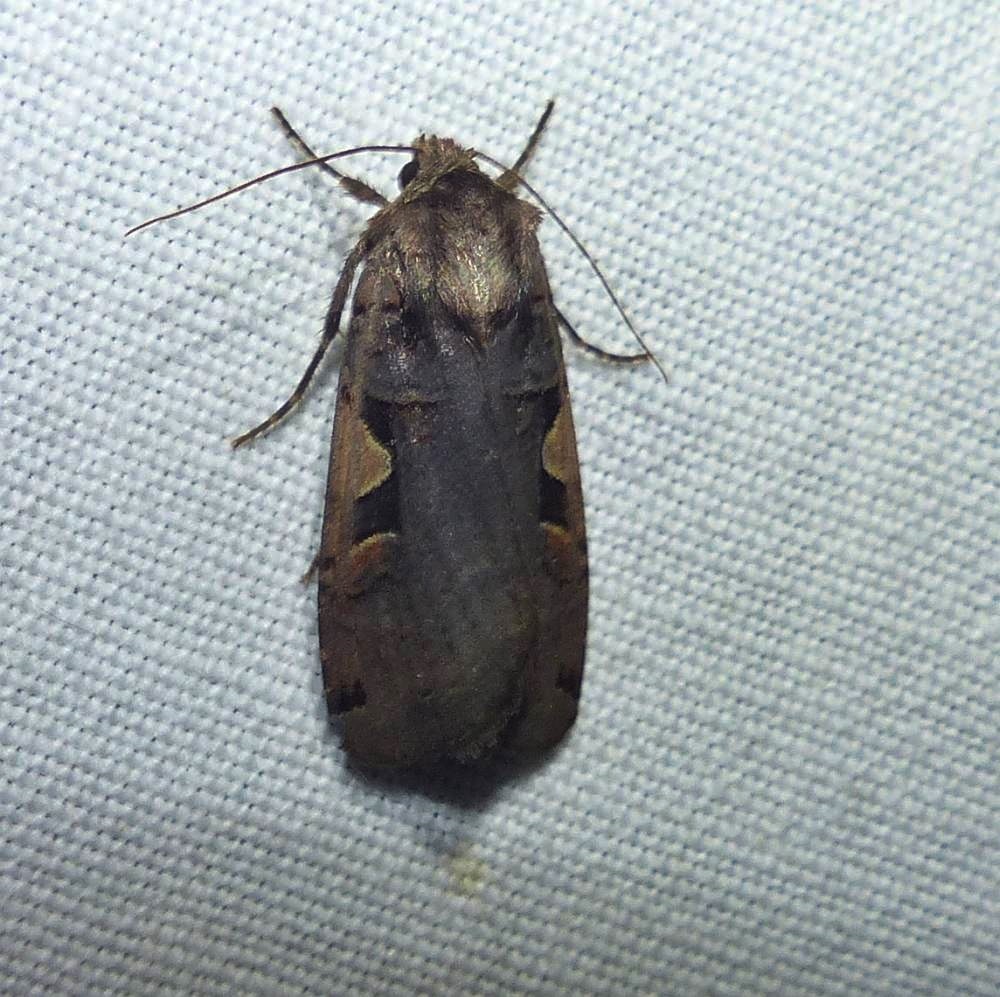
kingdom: Animalia
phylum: Arthropoda
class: Insecta
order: Lepidoptera
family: Noctuidae
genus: Xestia
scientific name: Xestia
